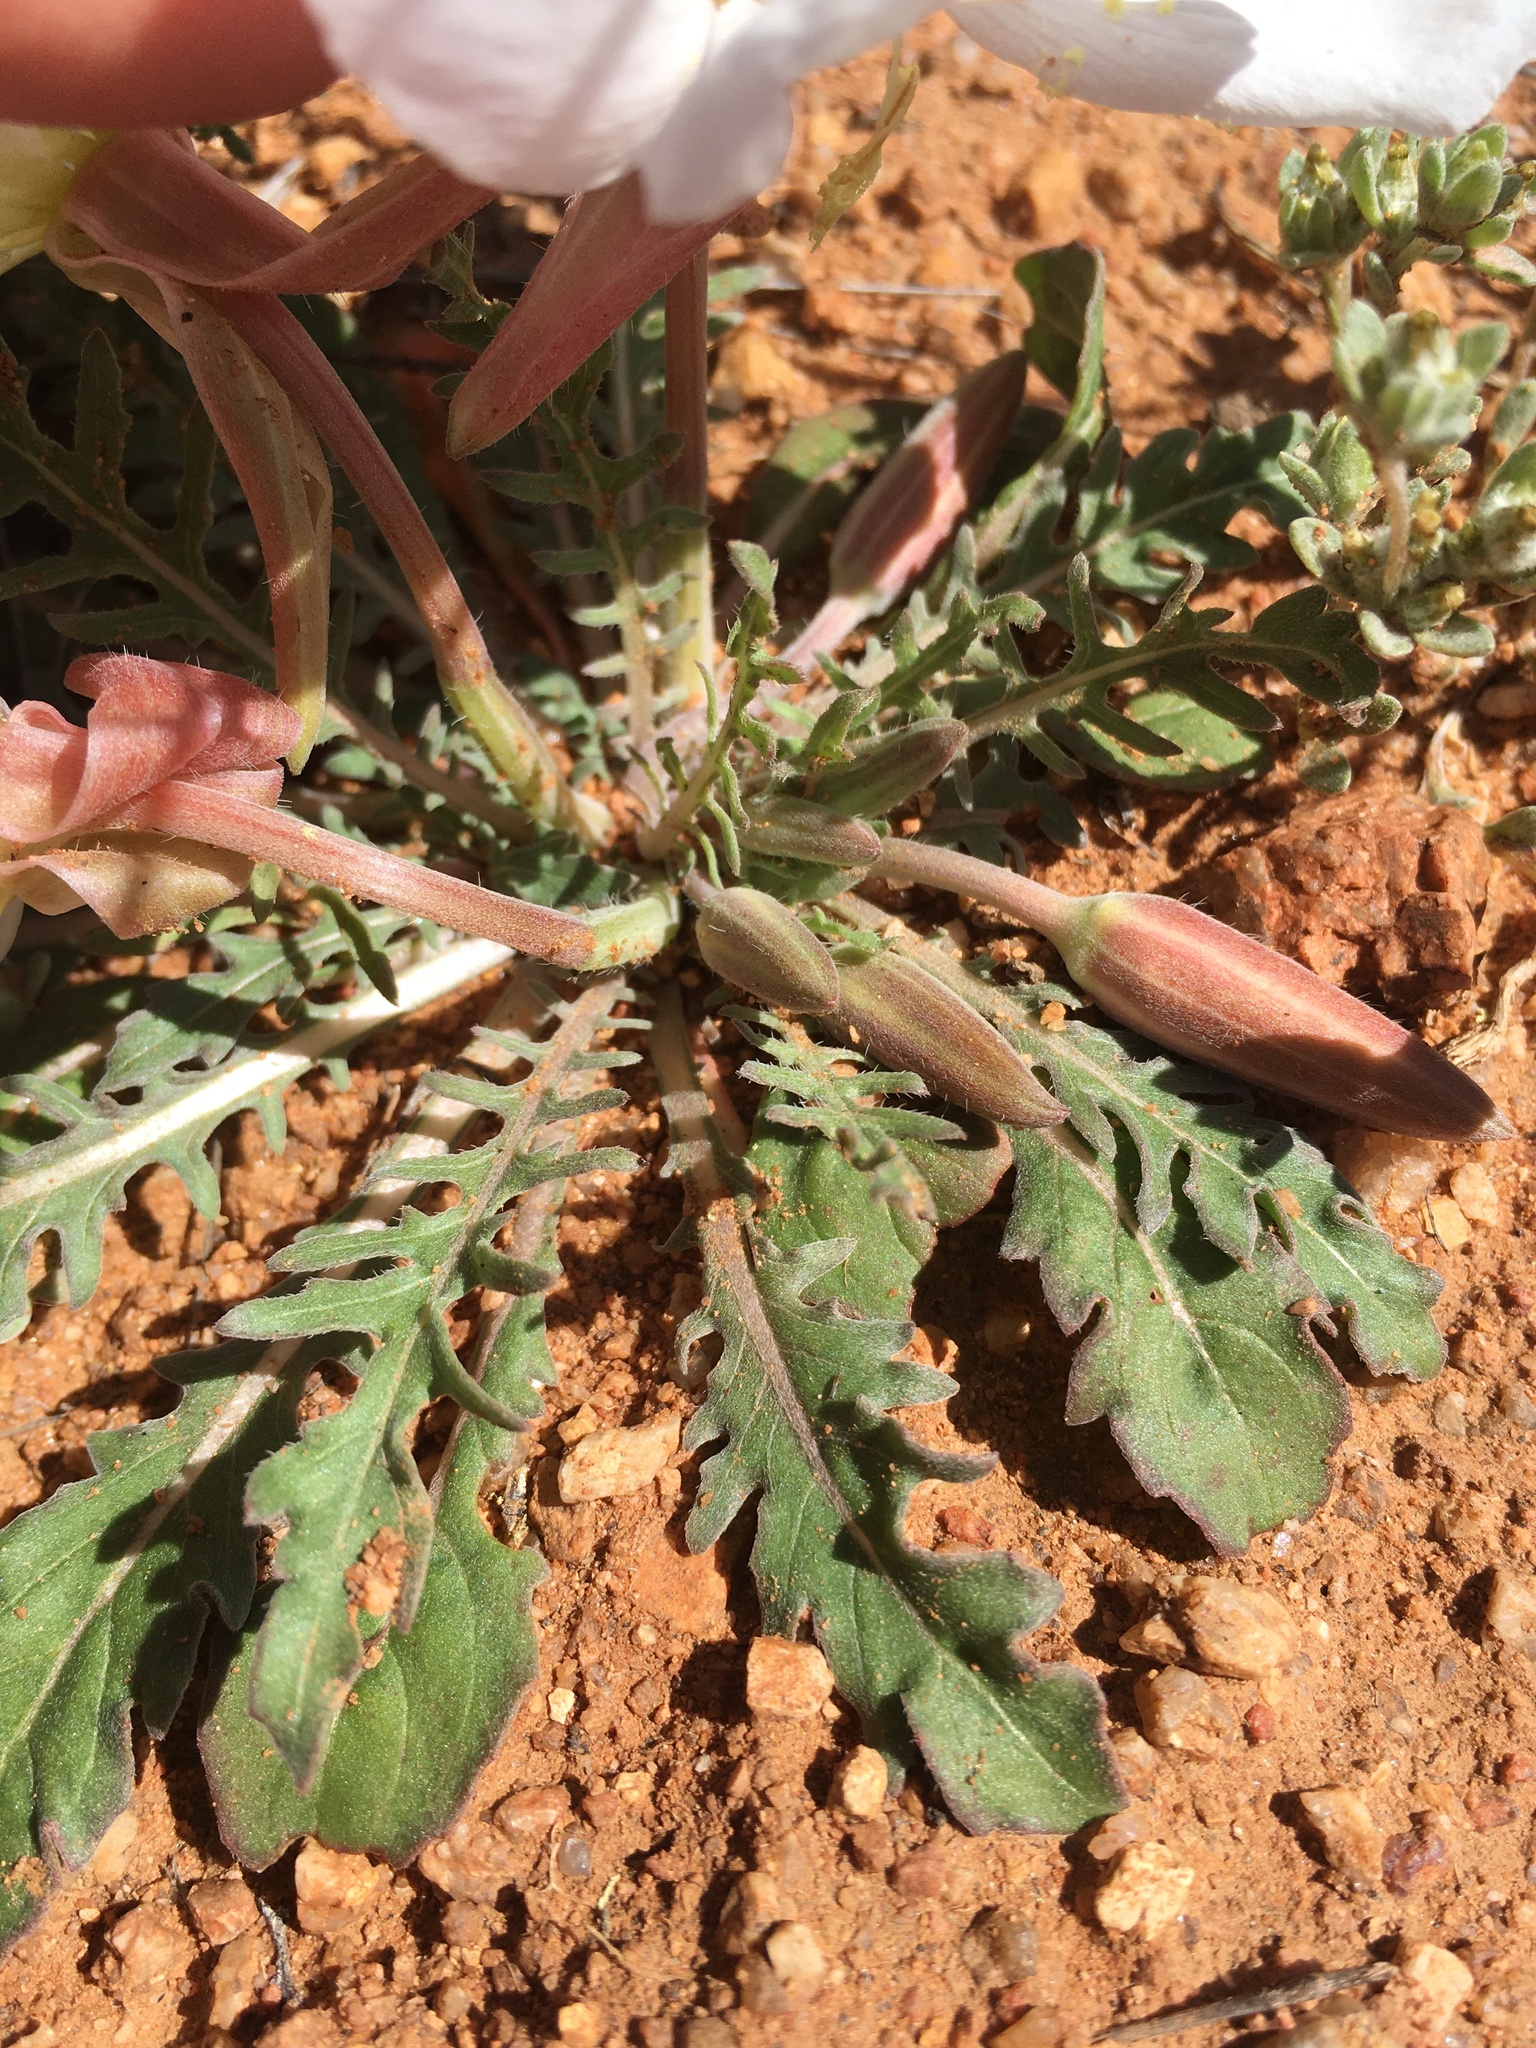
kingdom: Plantae
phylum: Tracheophyta
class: Magnoliopsida
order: Myrtales
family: Onagraceae
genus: Oenothera
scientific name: Oenothera albicaulis
